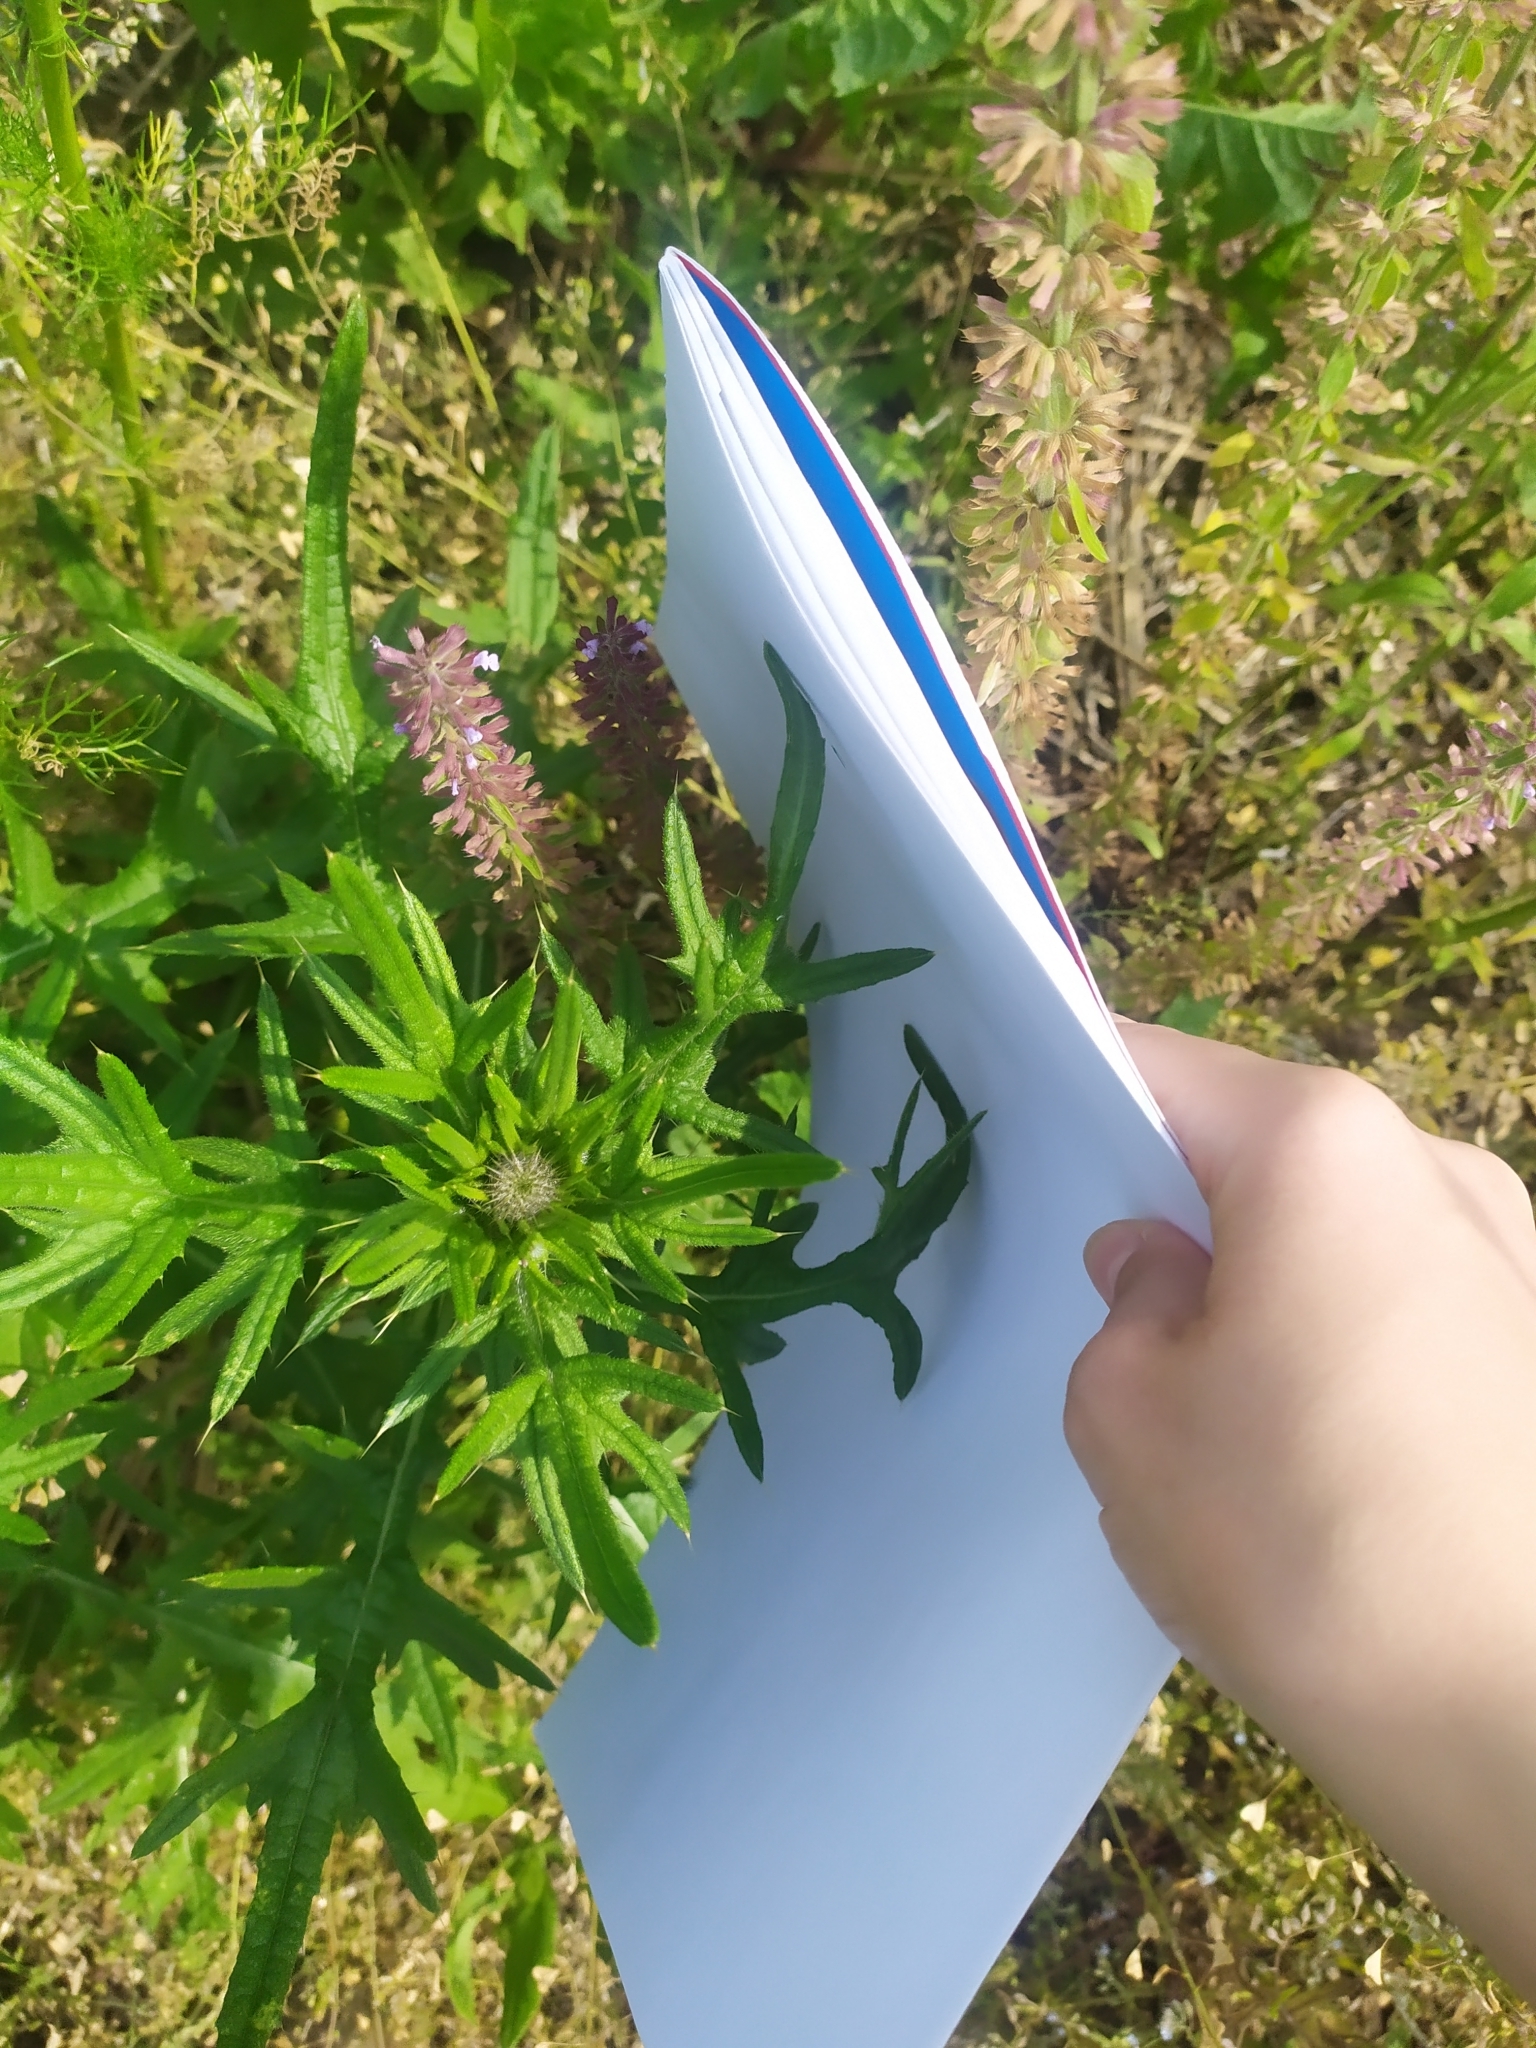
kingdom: Plantae
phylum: Tracheophyta
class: Magnoliopsida
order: Asterales
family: Asteraceae
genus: Cirsium
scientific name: Cirsium vulgare
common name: Bull thistle
